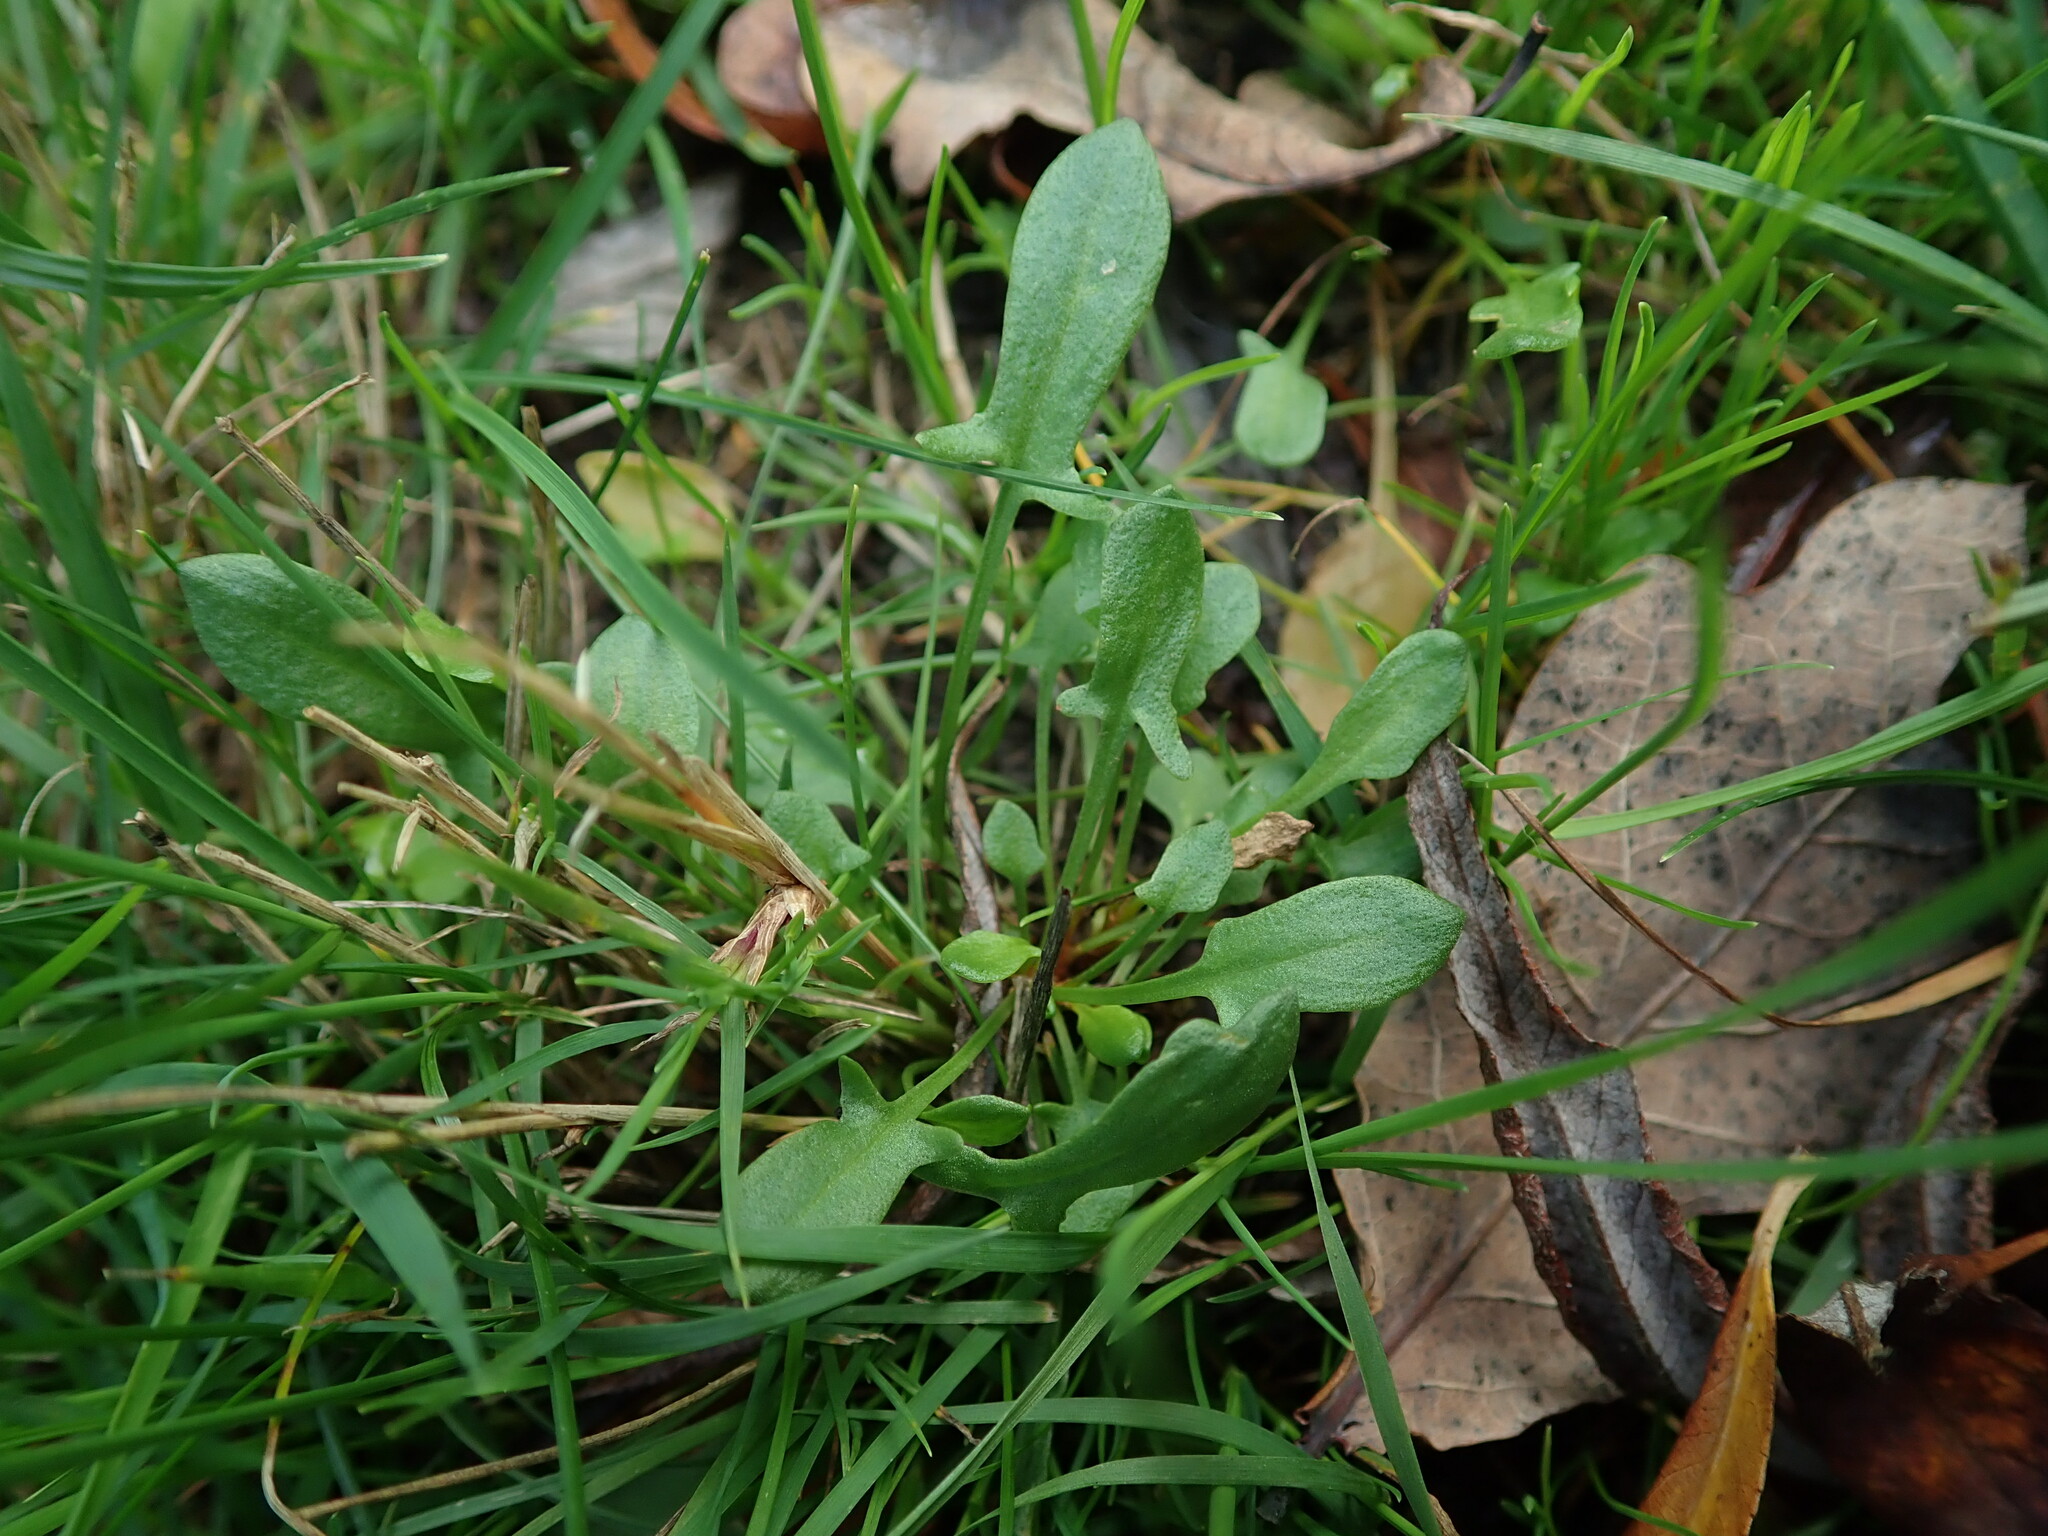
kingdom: Plantae
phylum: Tracheophyta
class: Magnoliopsida
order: Caryophyllales
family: Polygonaceae
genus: Rumex
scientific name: Rumex acetosella
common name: Common sheep sorrel
